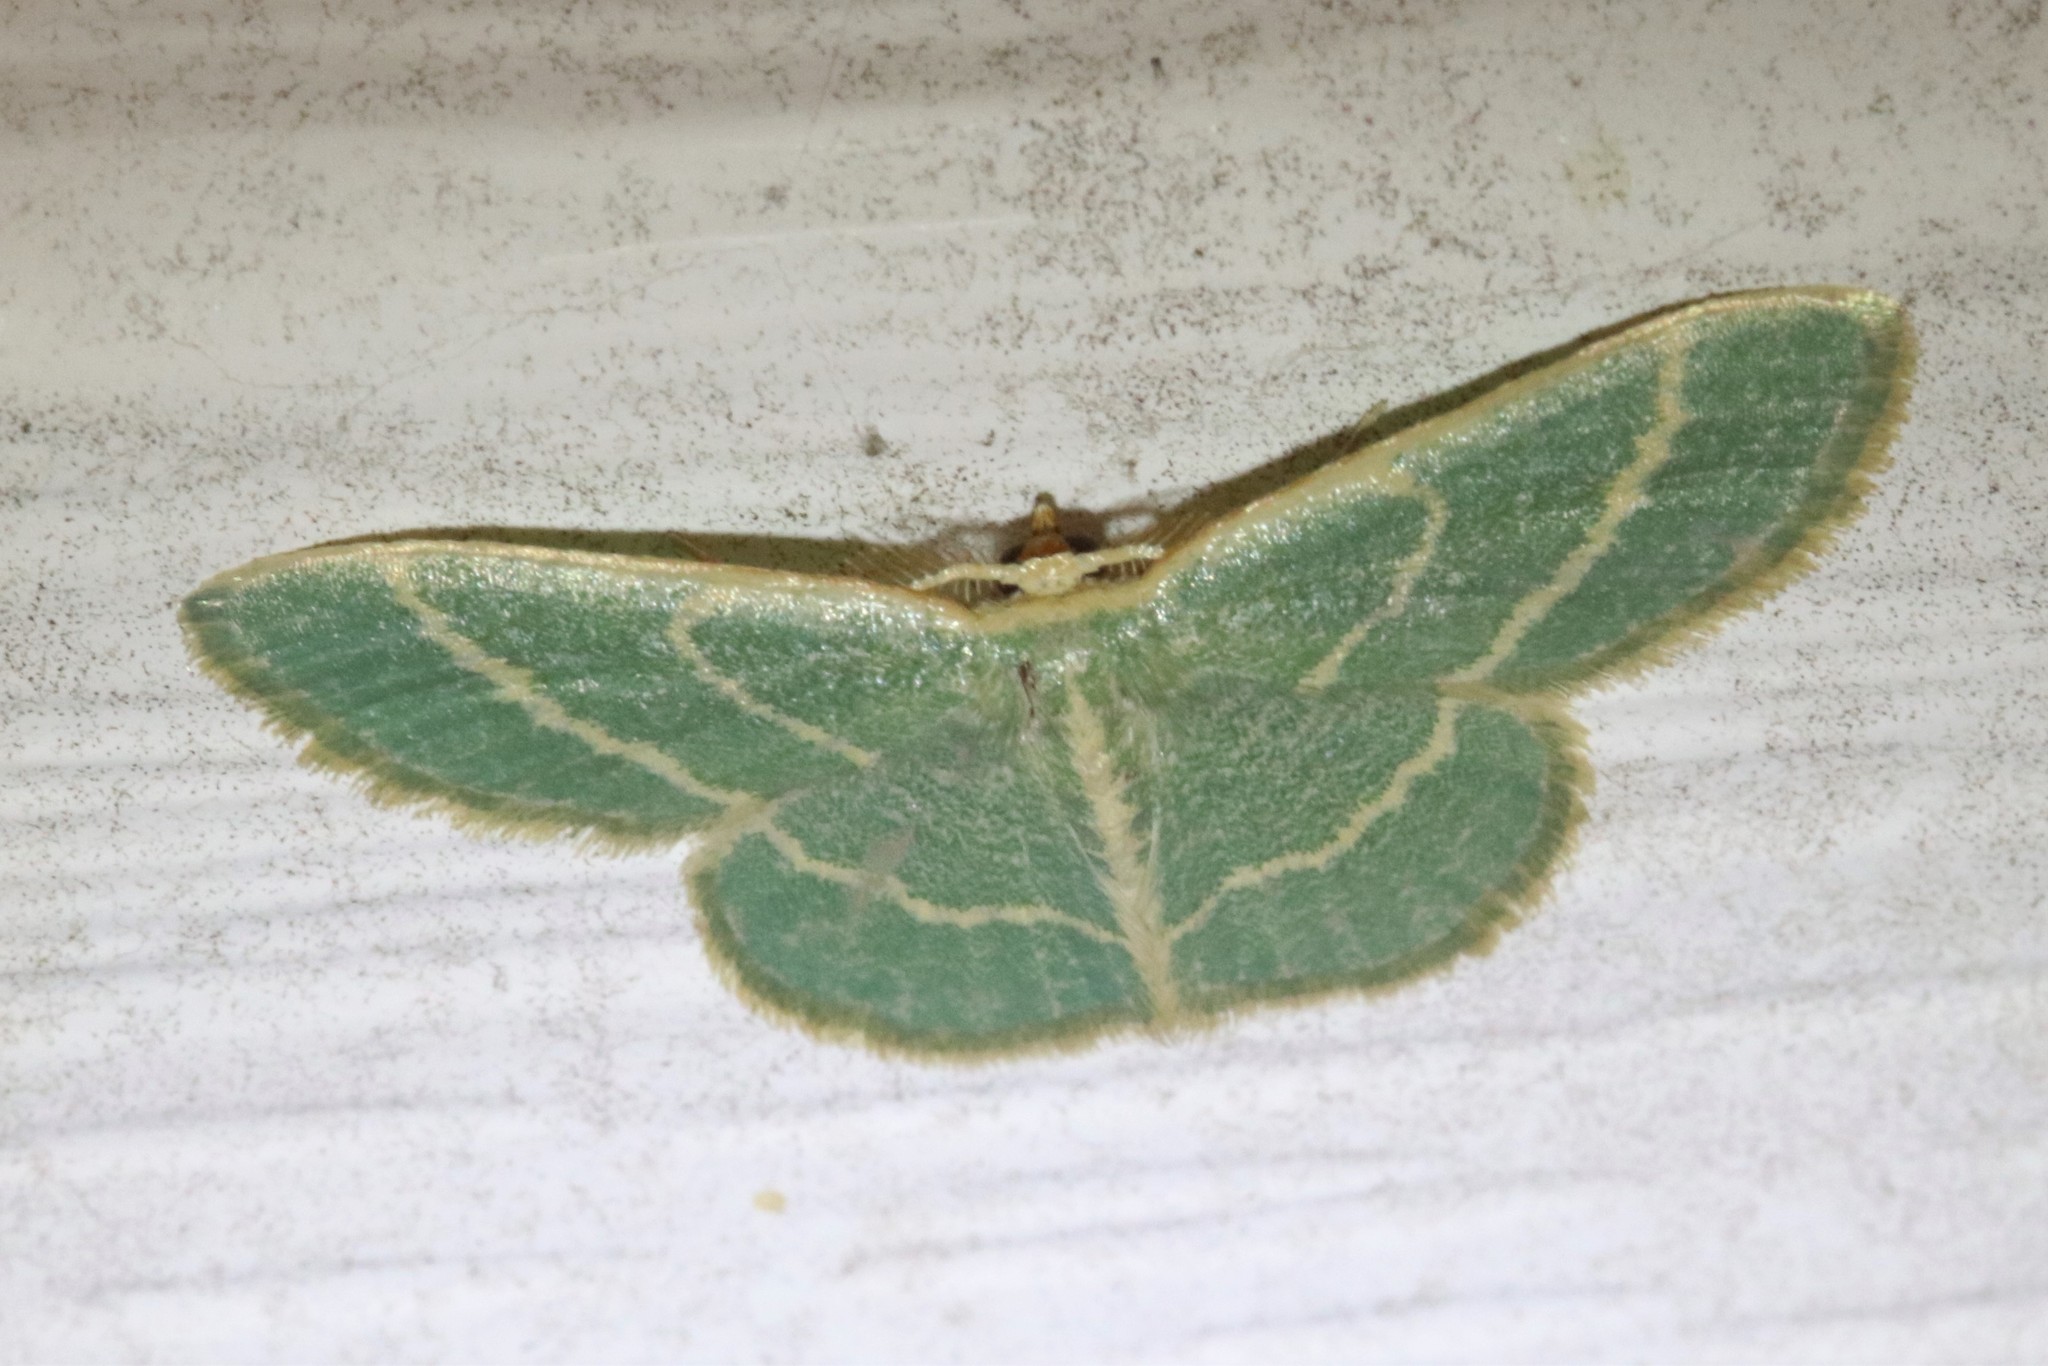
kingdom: Animalia
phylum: Arthropoda
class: Insecta
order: Lepidoptera
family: Geometridae
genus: Chlorochlamys
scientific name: Chlorochlamys chloroleucaria
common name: Blackberry looper
